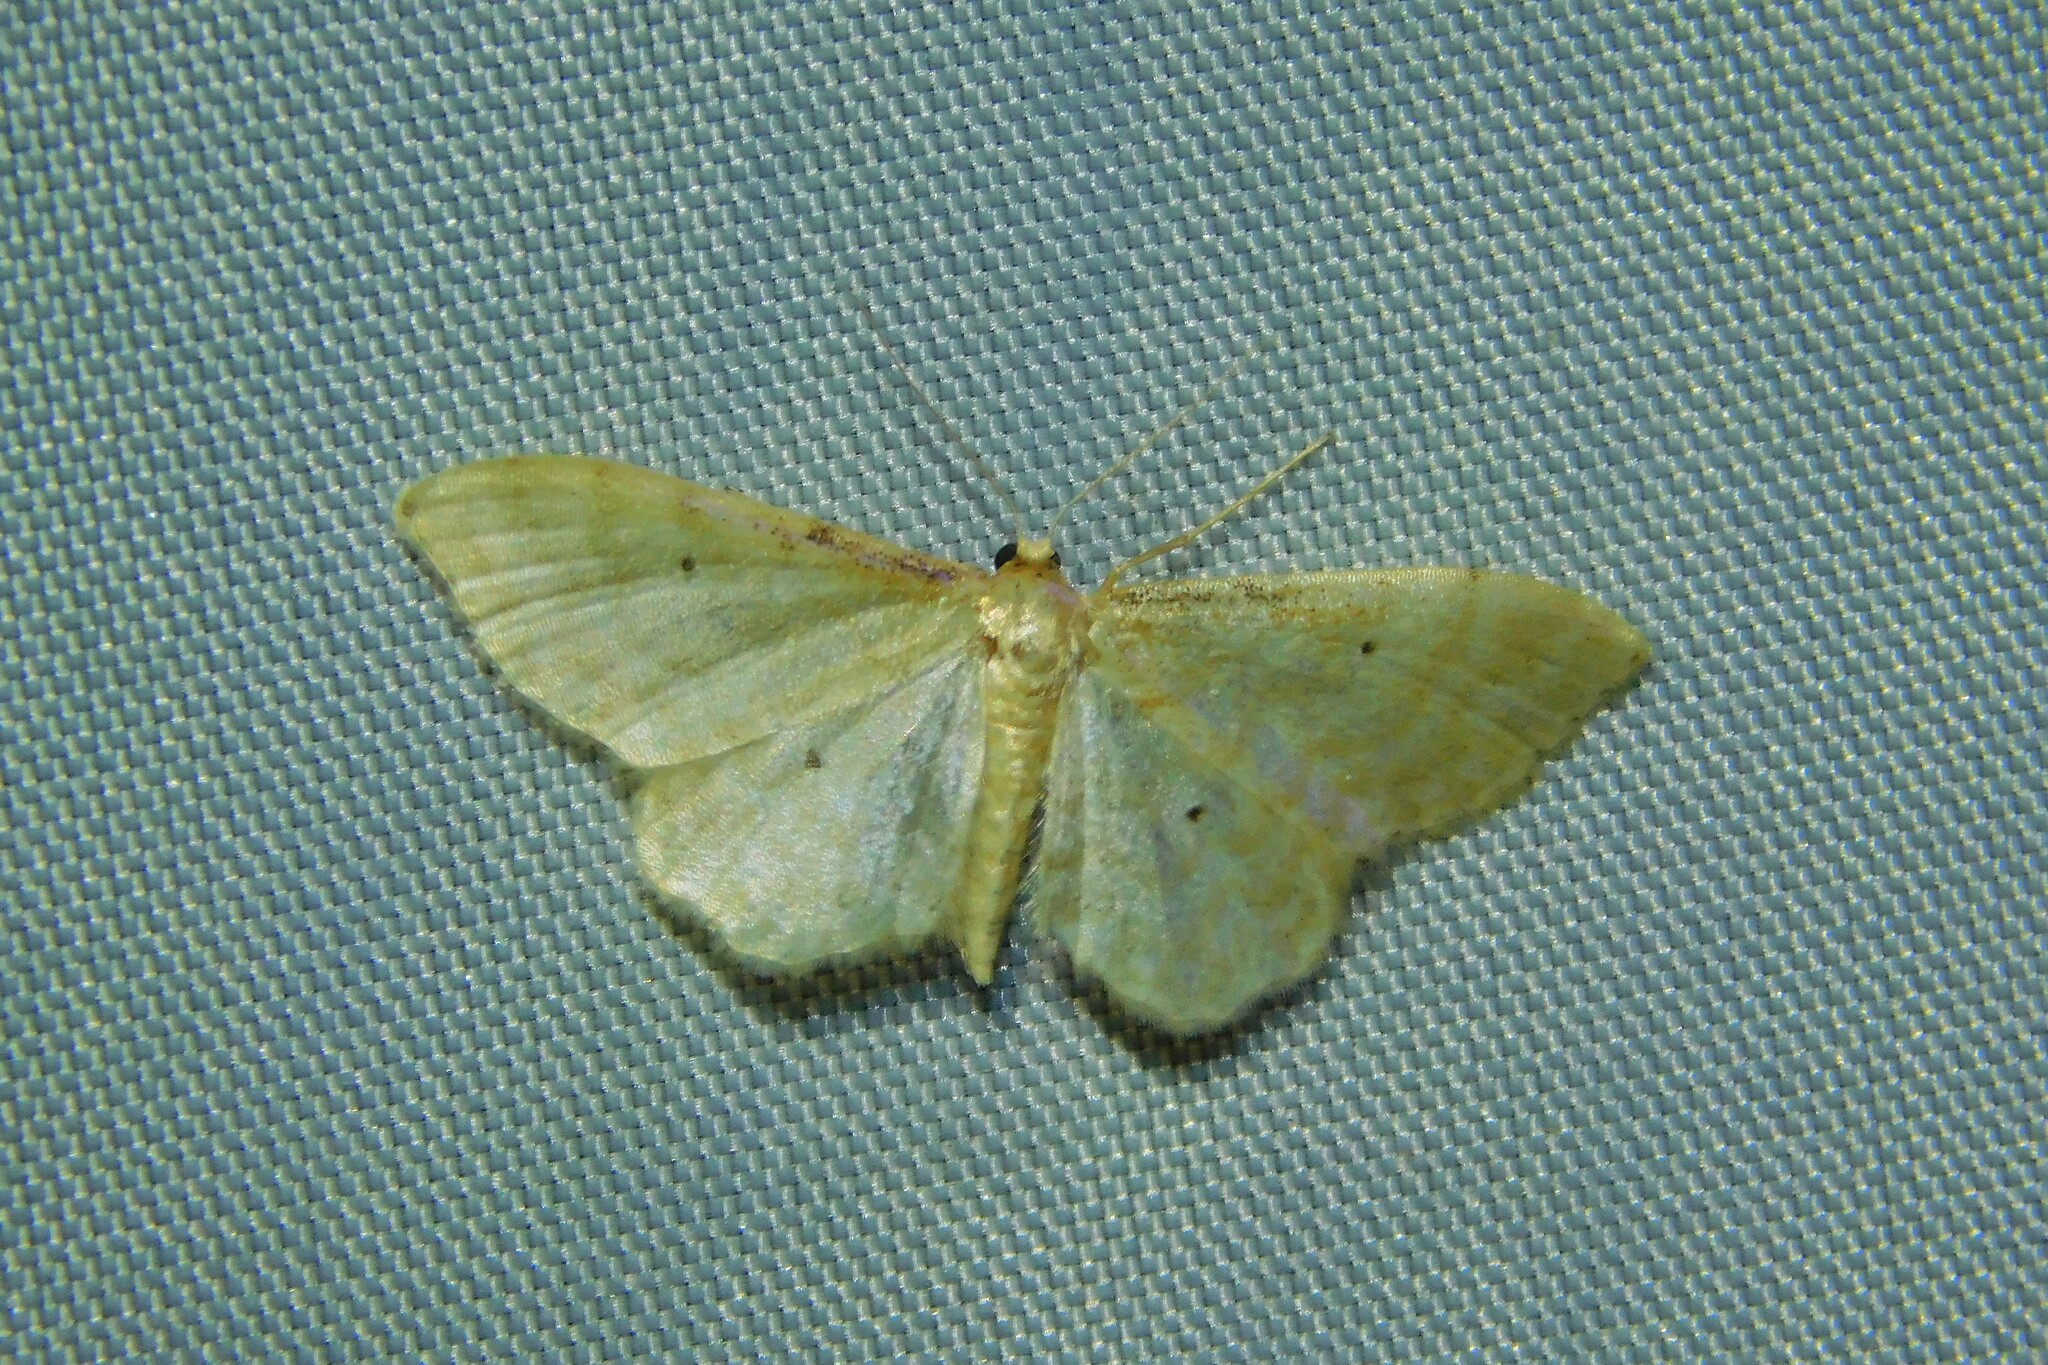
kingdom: Animalia
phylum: Arthropoda
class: Insecta
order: Lepidoptera
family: Geometridae
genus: Idaea
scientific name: Idaea fuscovenosa
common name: Dwarf cream wave
